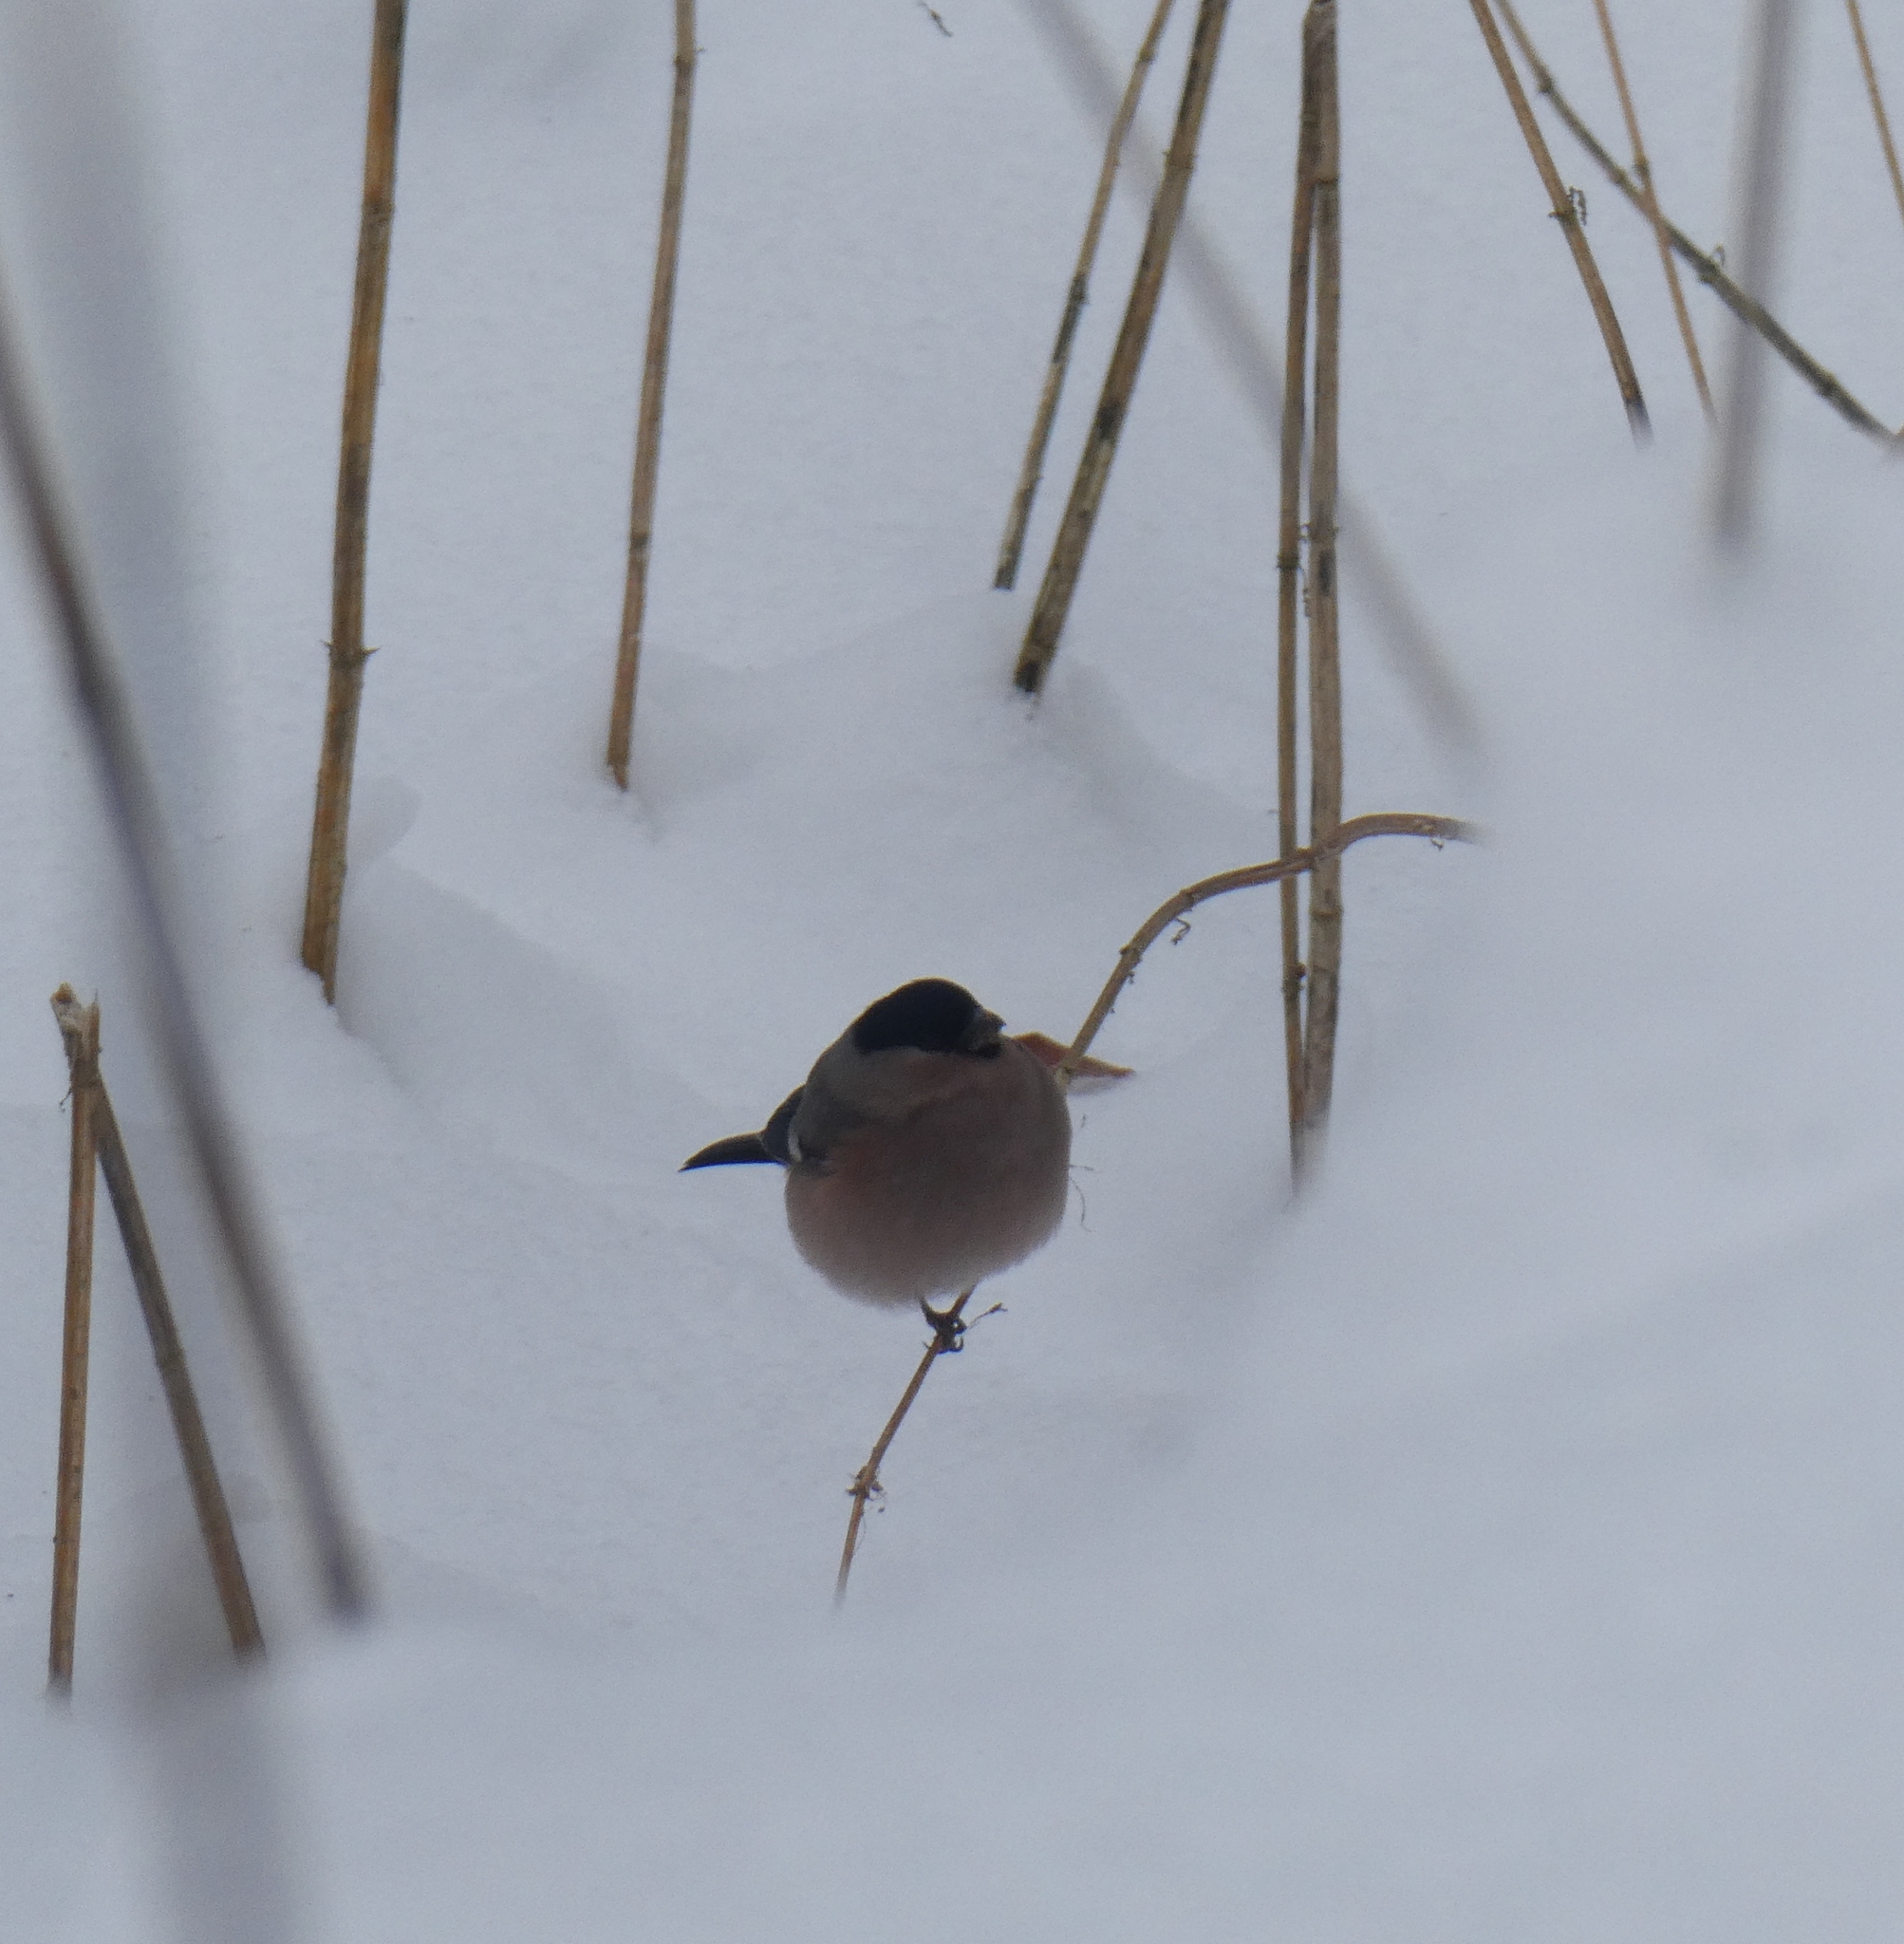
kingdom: Animalia
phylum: Chordata
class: Aves
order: Passeriformes
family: Fringillidae
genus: Pyrrhula
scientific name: Pyrrhula pyrrhula
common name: Eurasian bullfinch
